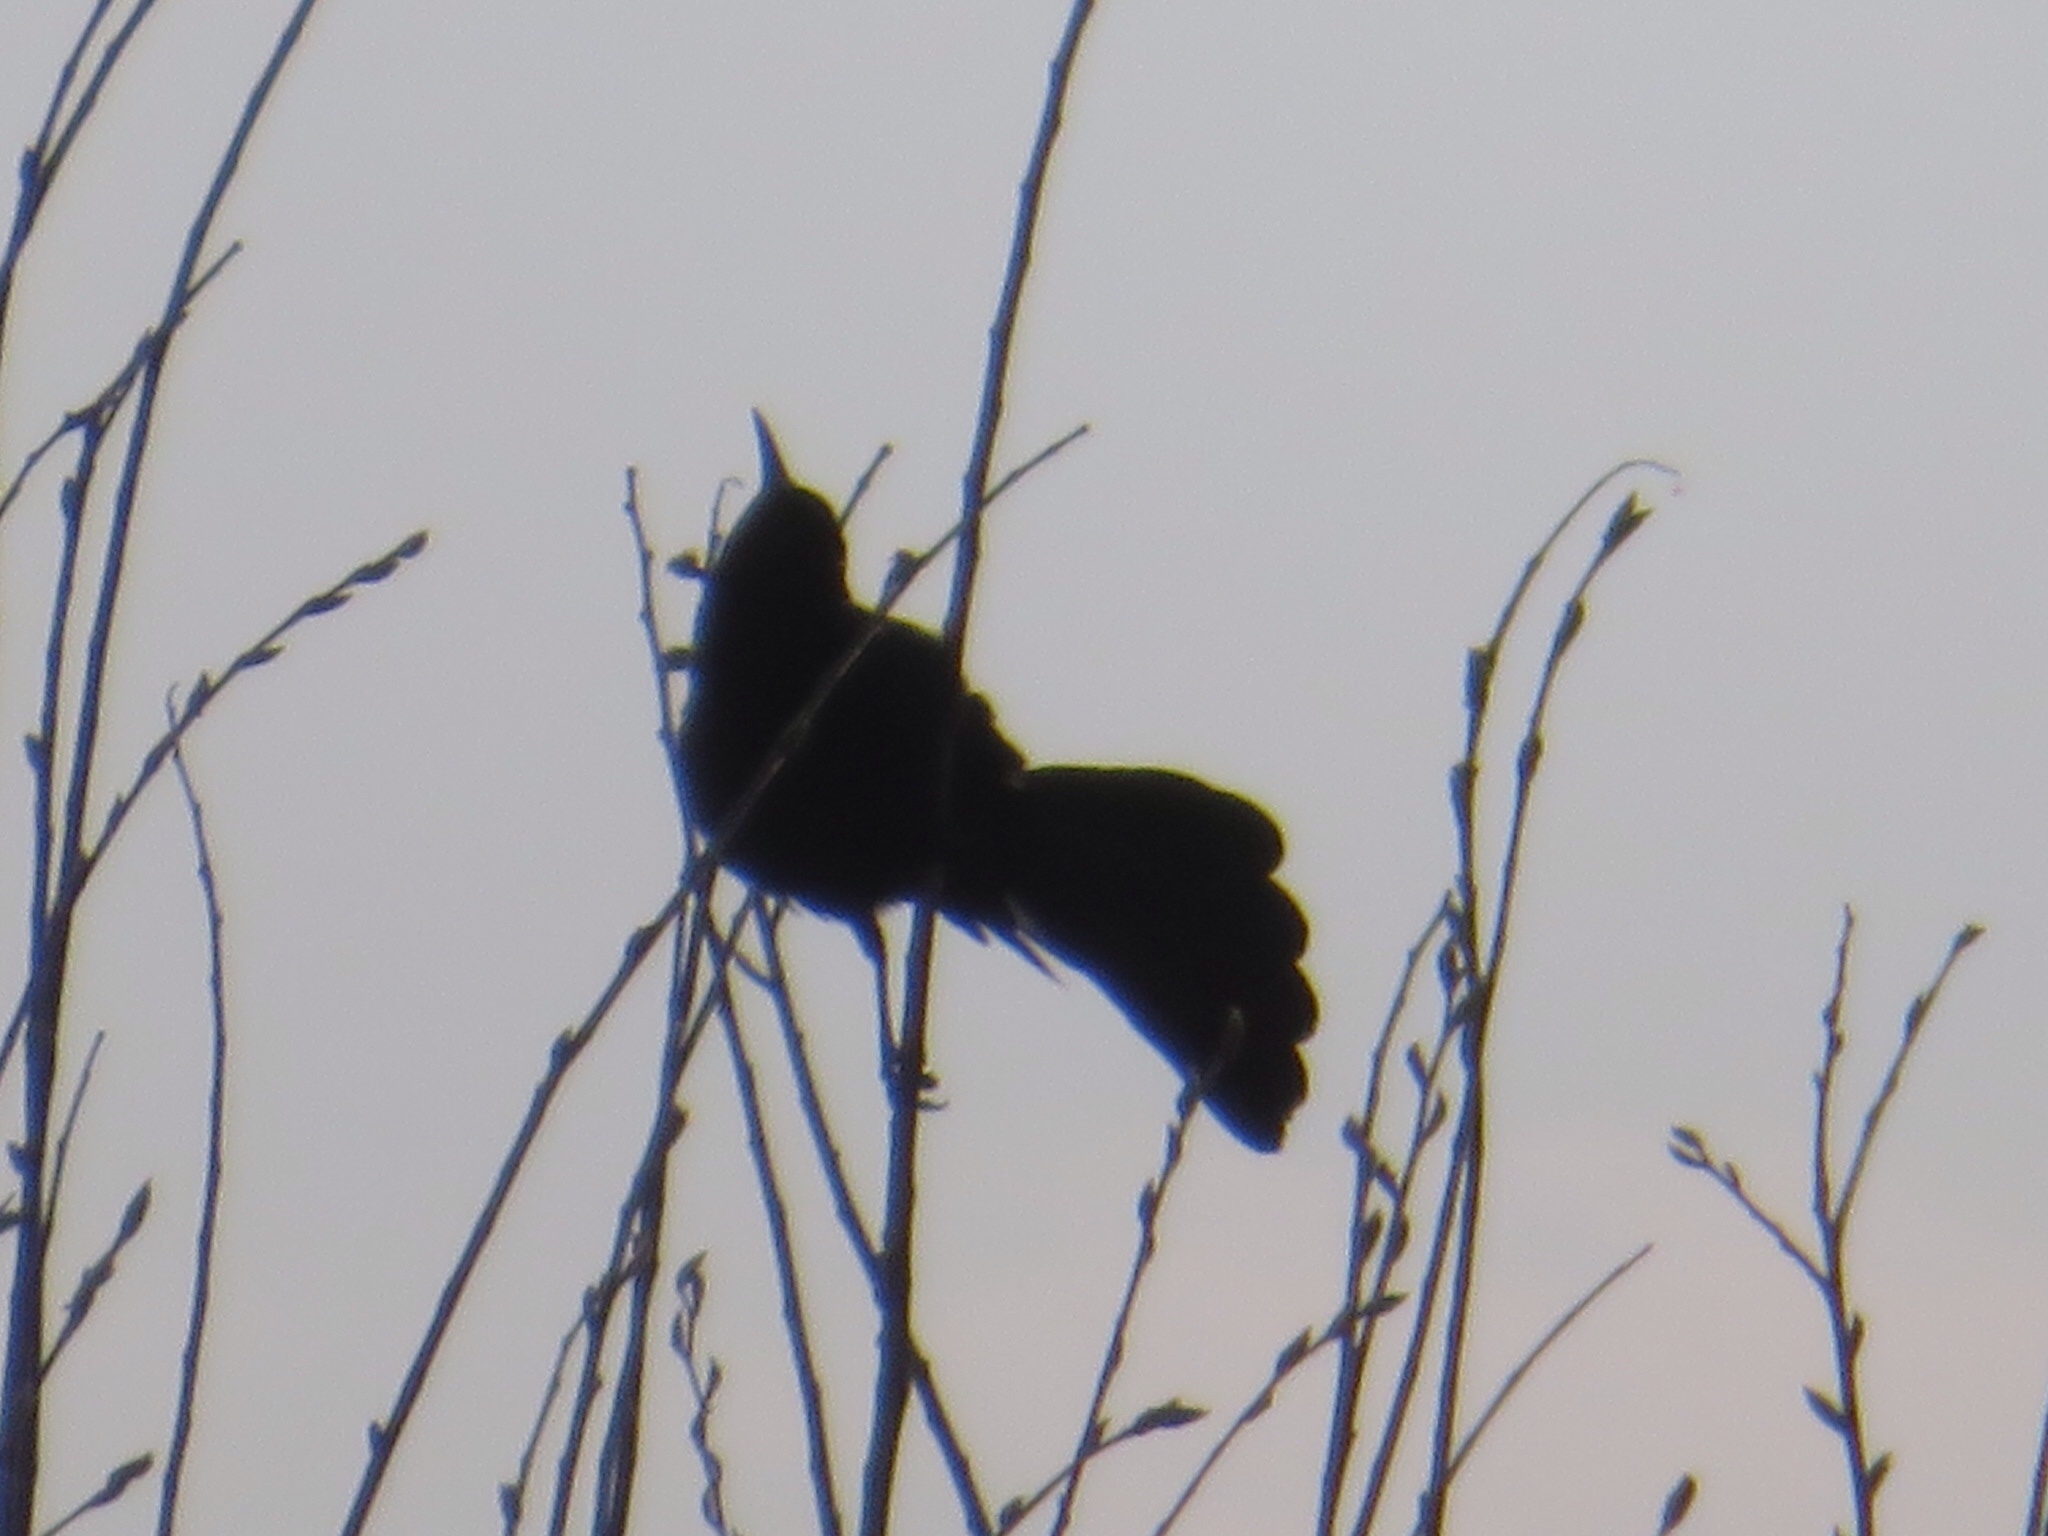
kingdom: Animalia
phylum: Chordata
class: Aves
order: Passeriformes
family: Icteridae
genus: Quiscalus
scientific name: Quiscalus mexicanus
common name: Great-tailed grackle
